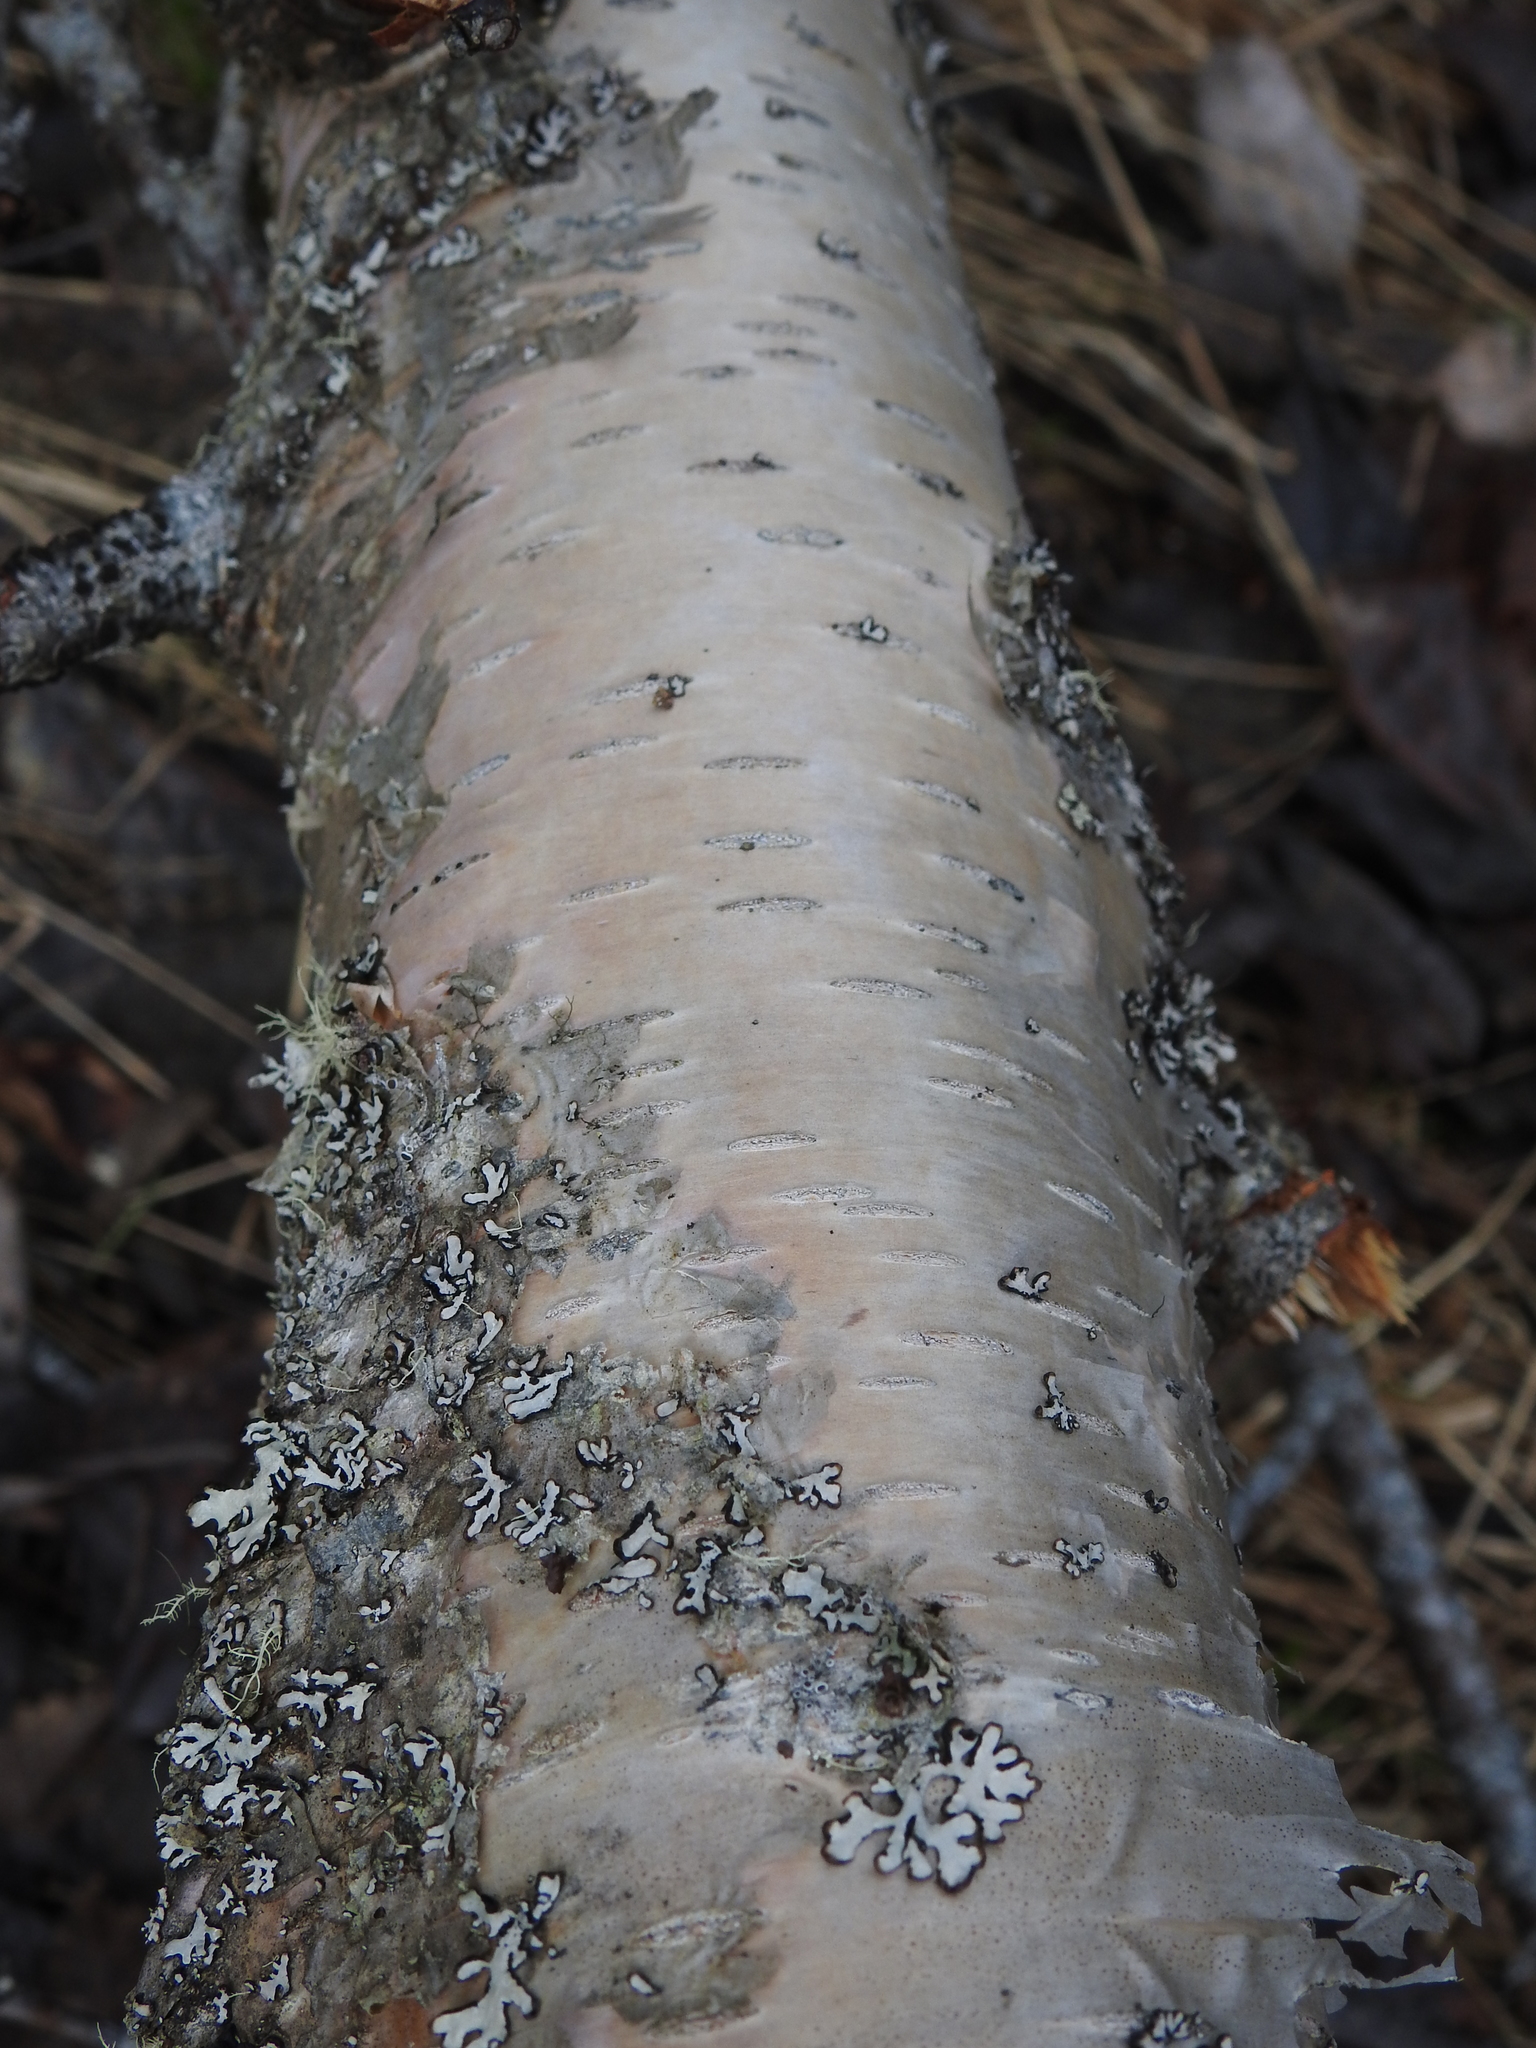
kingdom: Plantae
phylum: Tracheophyta
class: Magnoliopsida
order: Fagales
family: Betulaceae
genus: Betula
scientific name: Betula pubescens
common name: Downy birch
